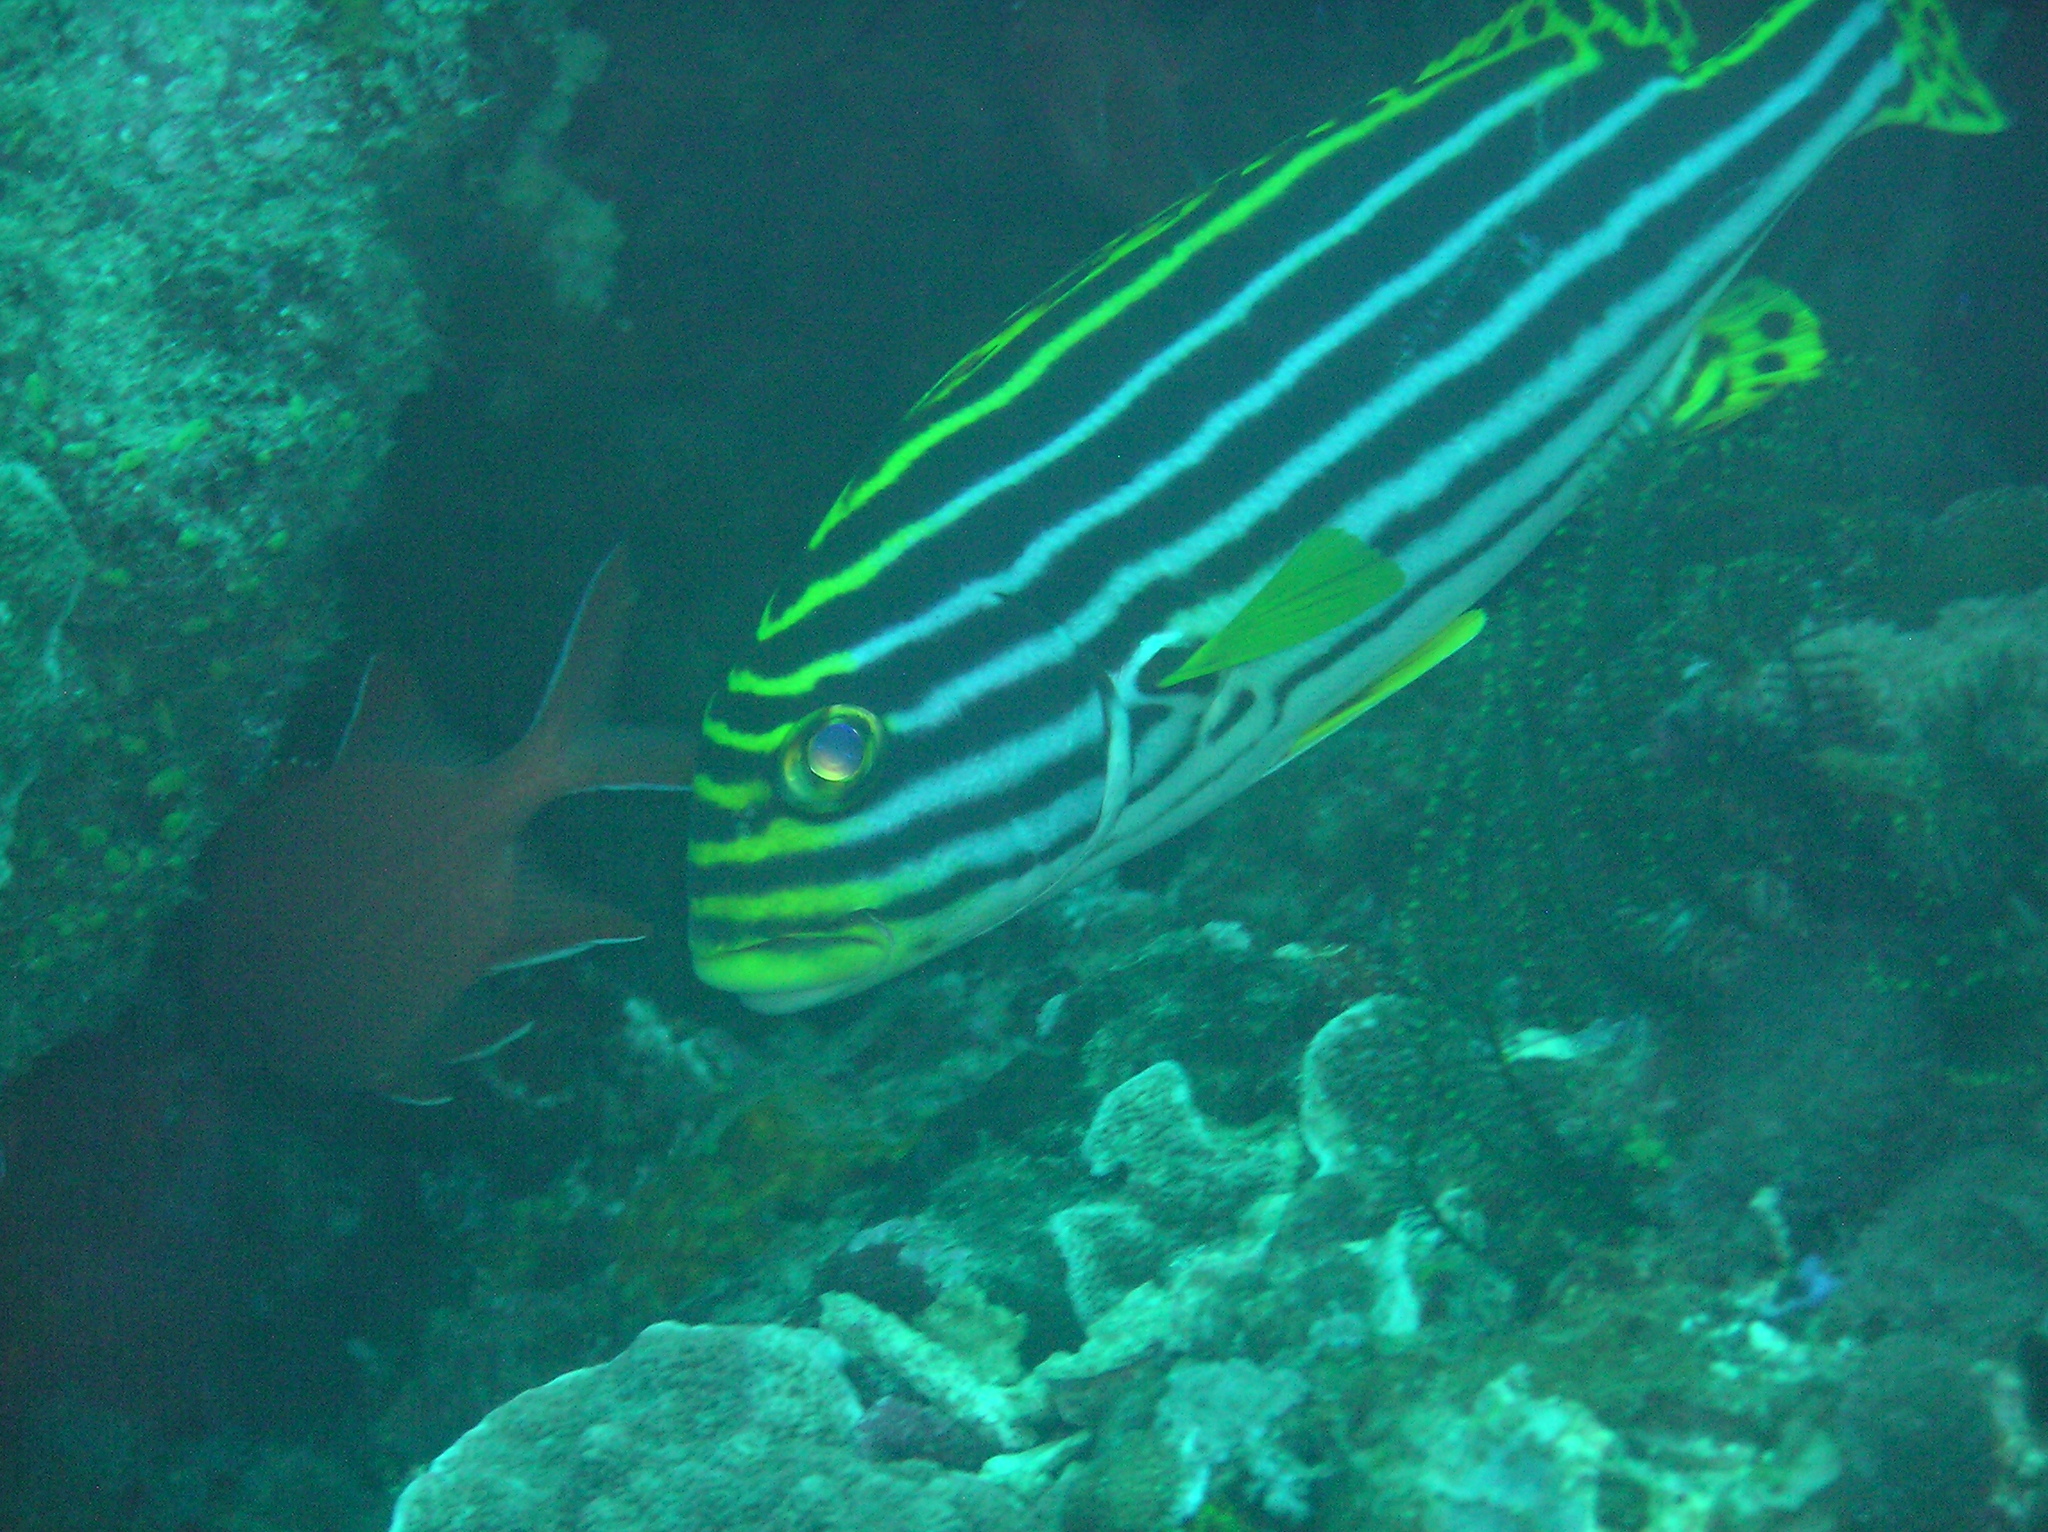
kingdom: Animalia
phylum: Chordata
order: Perciformes
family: Haemulidae
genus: Plectorhinchus
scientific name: Plectorhinchus vittatus
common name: Oriental sweetlips
